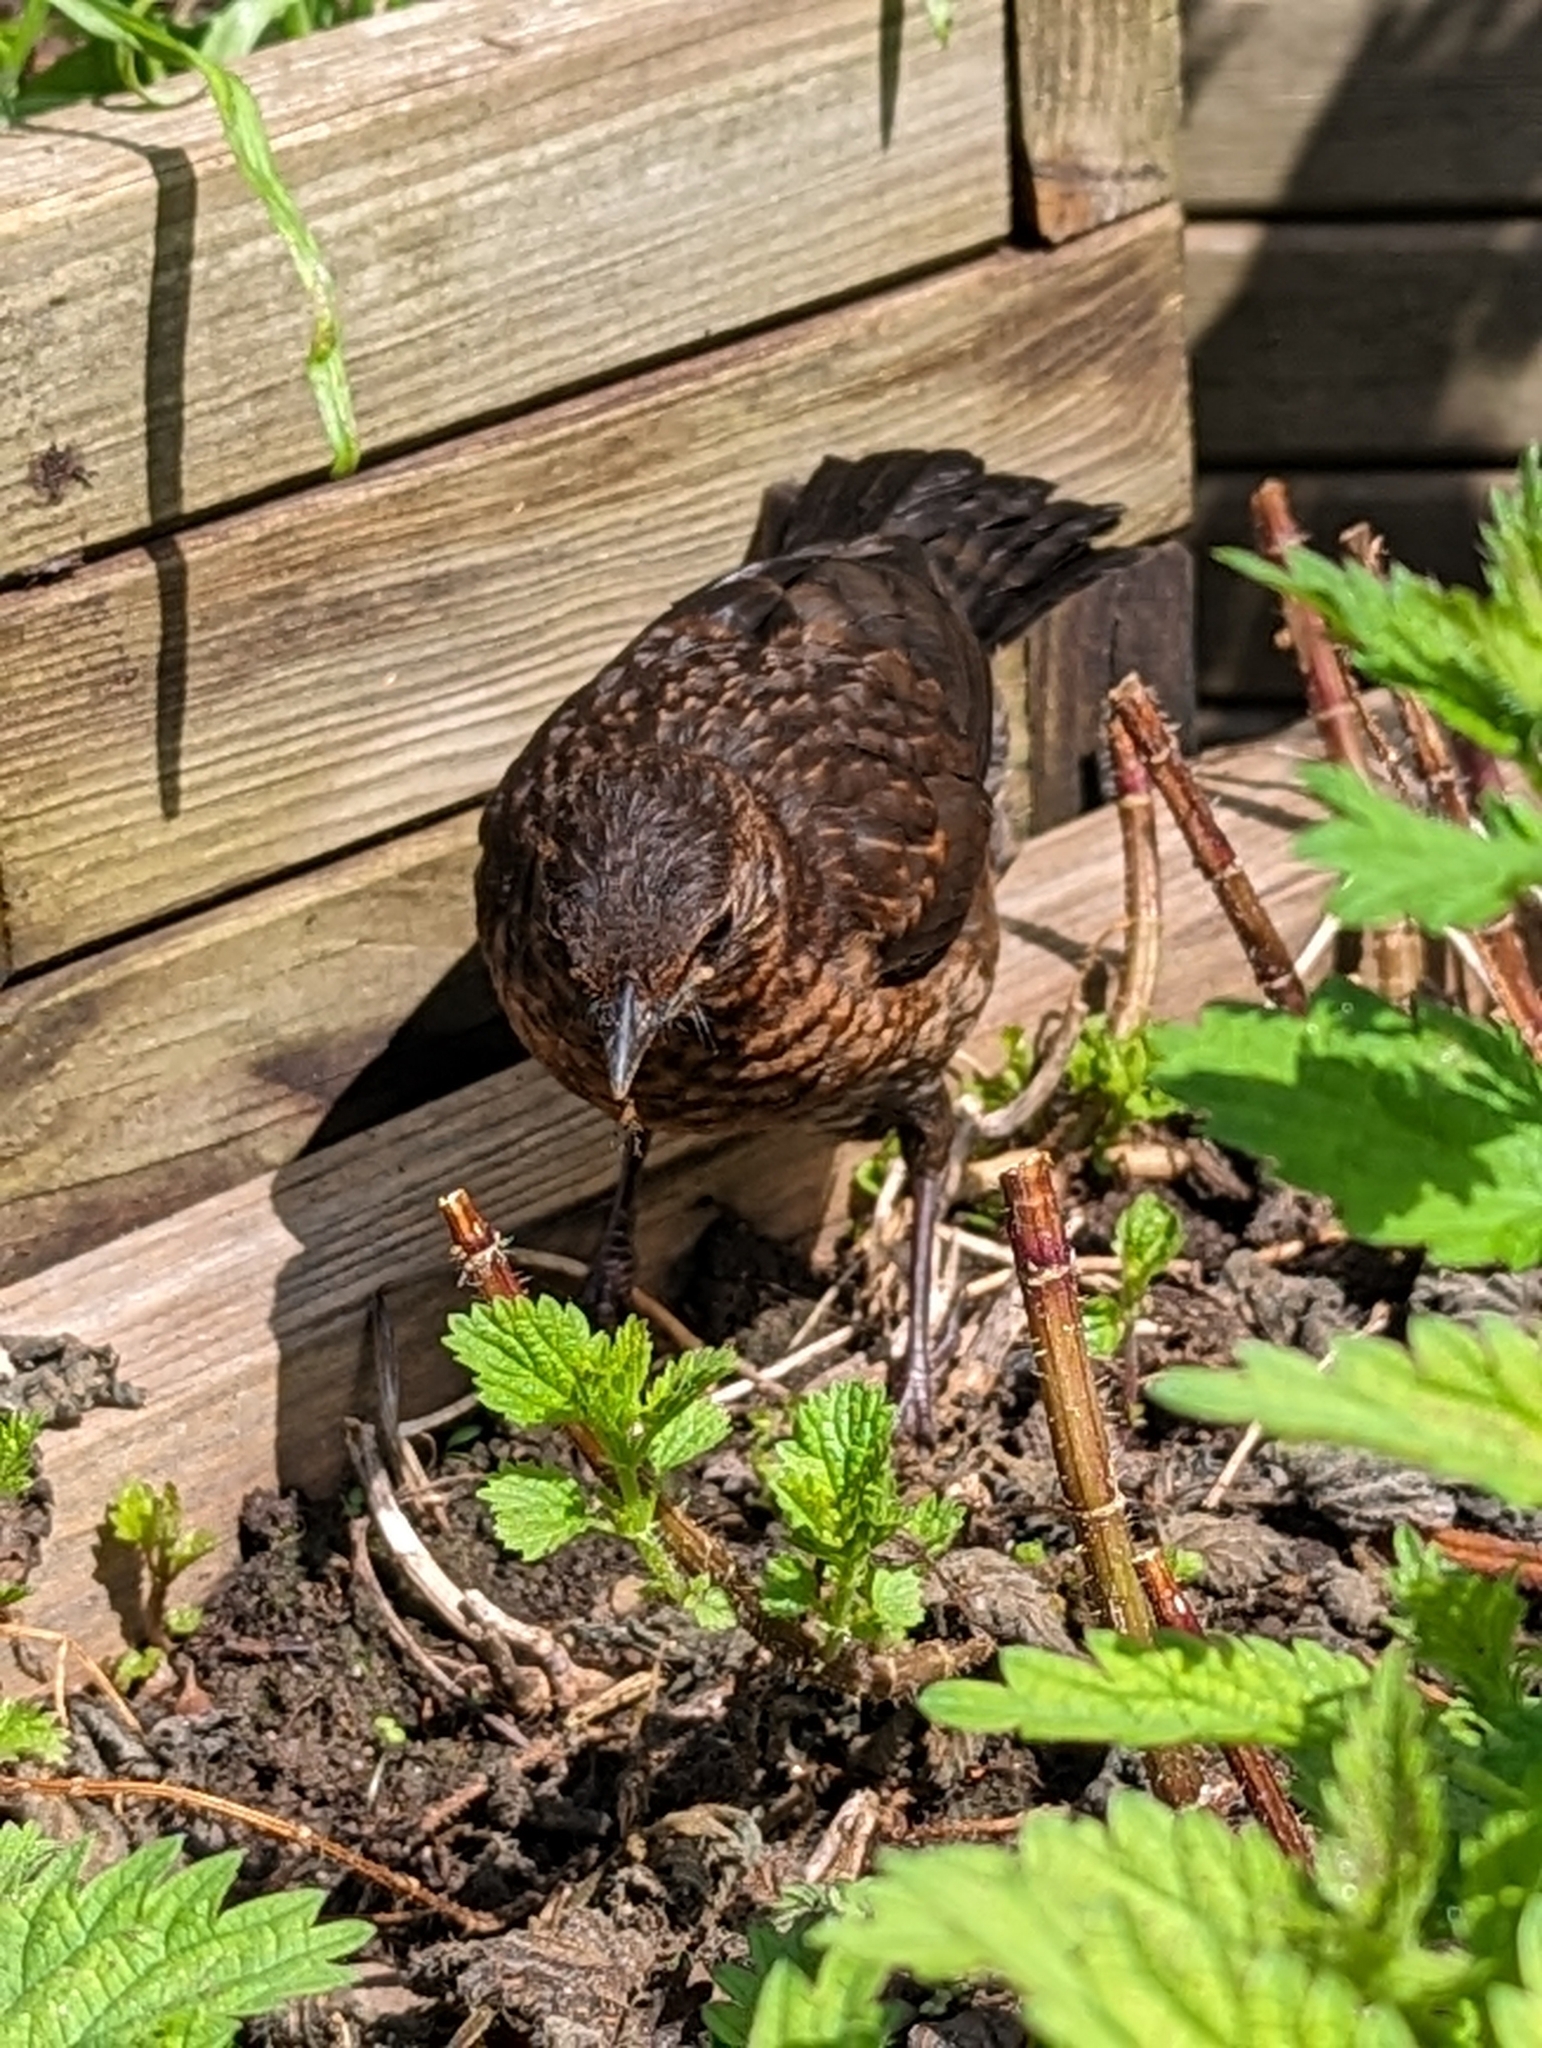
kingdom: Animalia
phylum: Chordata
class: Aves
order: Passeriformes
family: Turdidae
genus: Turdus
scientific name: Turdus merula
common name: Common blackbird
